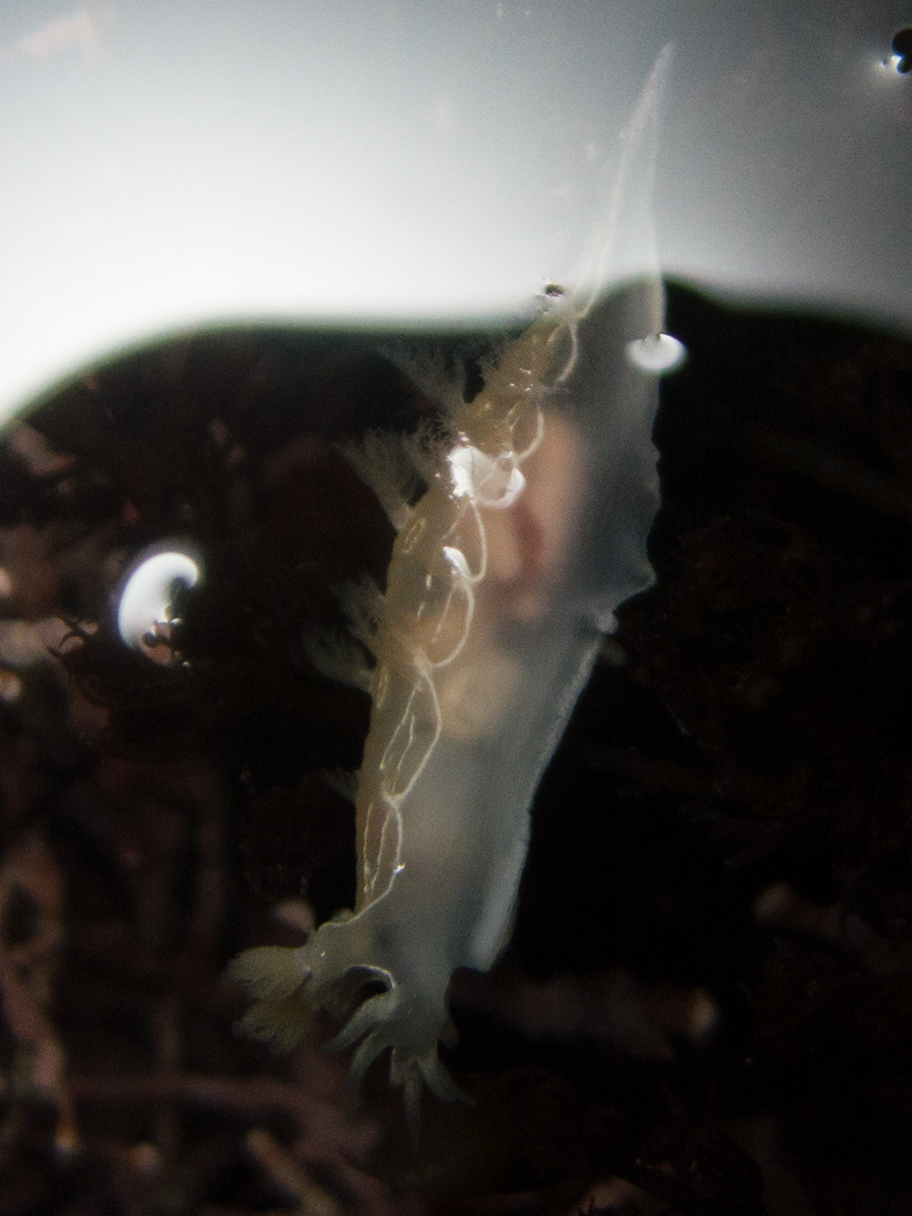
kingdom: Animalia
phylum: Mollusca
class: Gastropoda
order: Nudibranchia
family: Tritoniidae
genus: Tritonia
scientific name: Tritonia festiva
